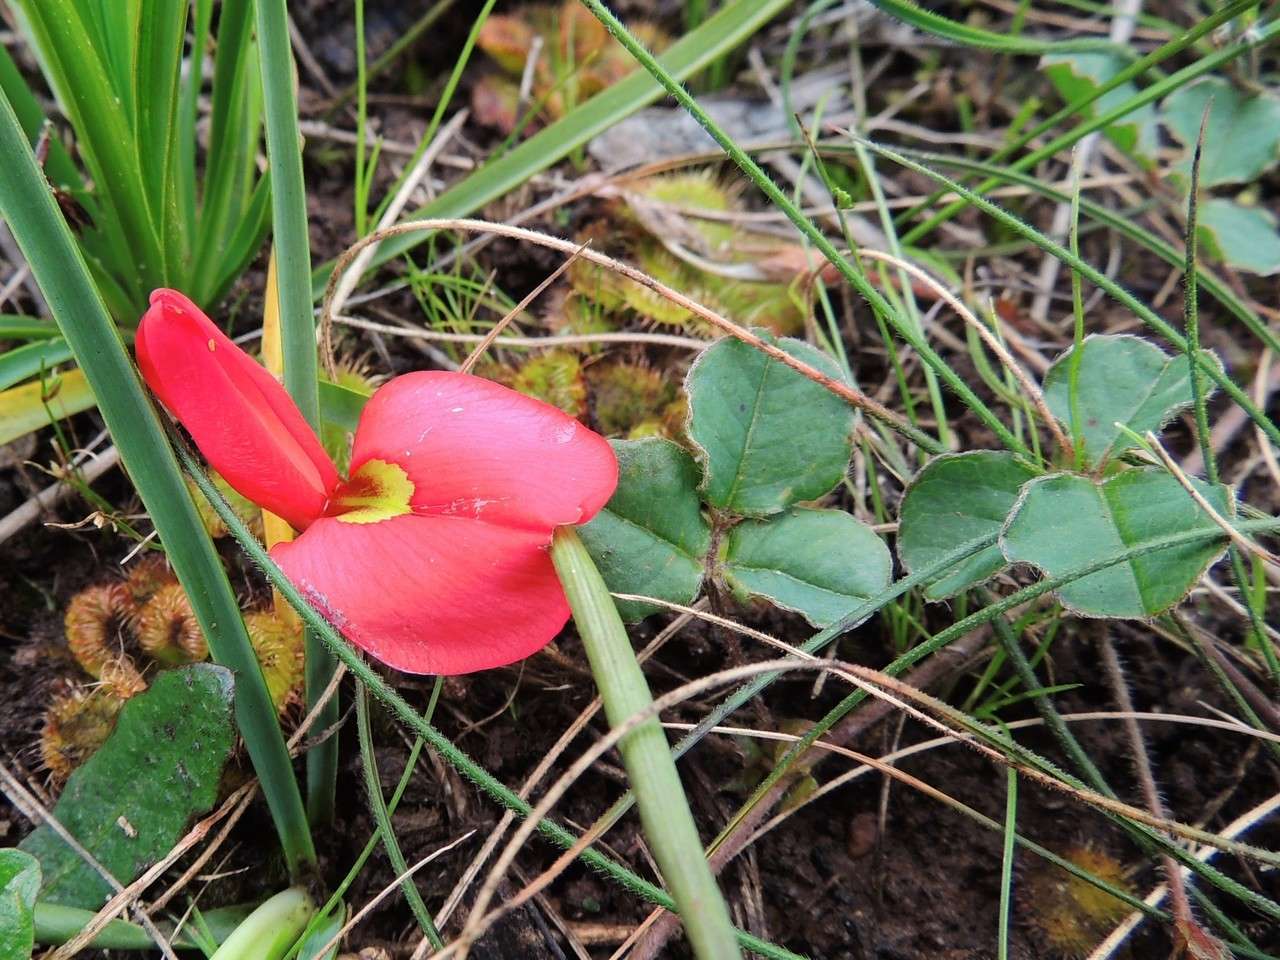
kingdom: Plantae
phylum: Tracheophyta
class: Magnoliopsida
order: Fabales
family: Fabaceae
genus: Kennedia
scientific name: Kennedia prostrata
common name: Running-postman
